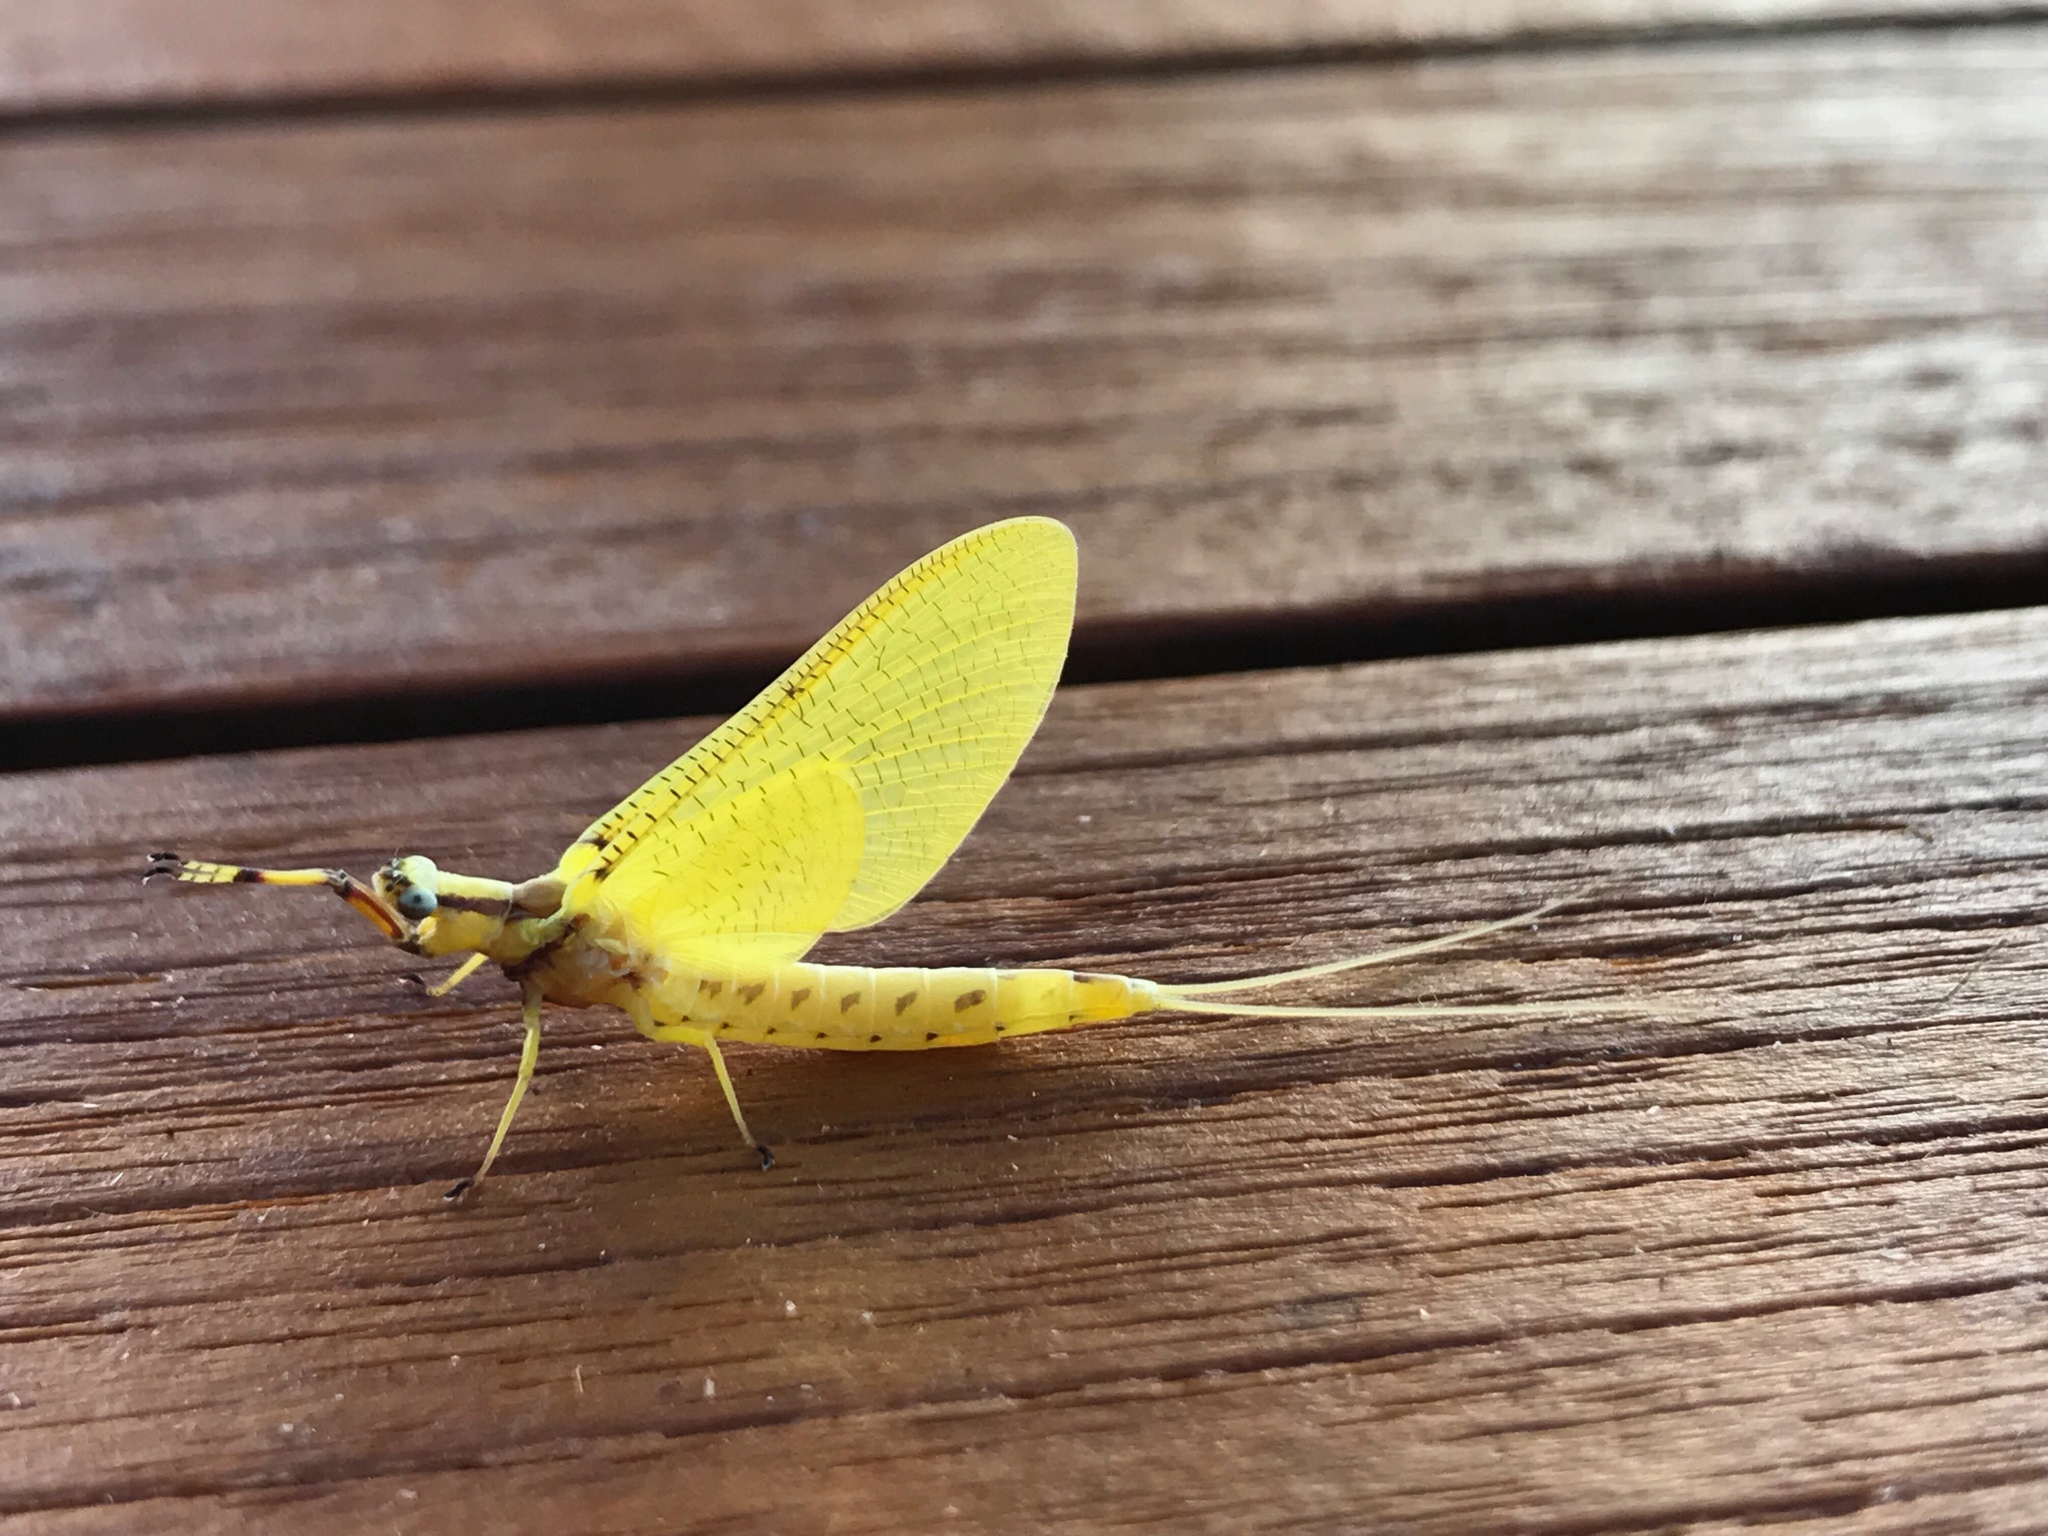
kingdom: Animalia
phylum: Arthropoda
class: Insecta
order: Ephemeroptera
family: Ephemeridae
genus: Hexagenia
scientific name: Hexagenia limbata
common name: Giant mayfly
